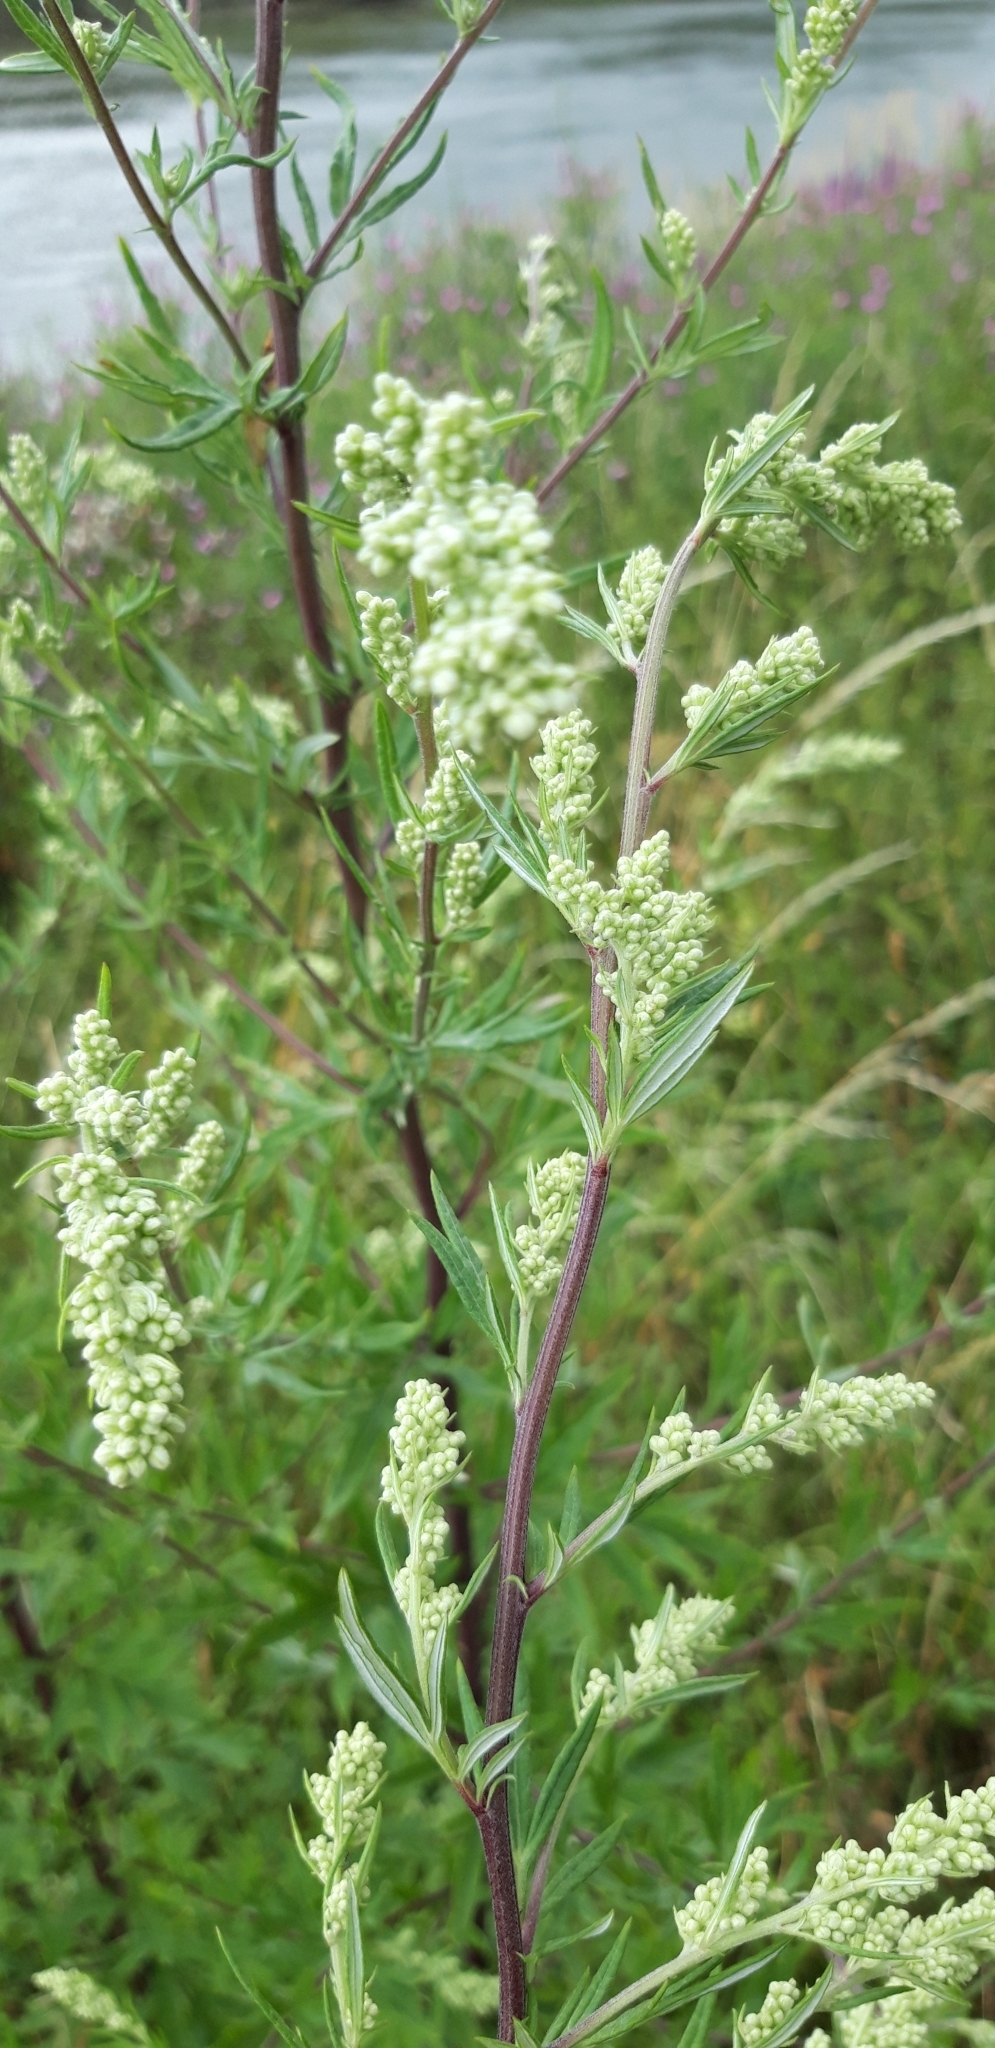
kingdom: Plantae
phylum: Tracheophyta
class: Magnoliopsida
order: Asterales
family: Asteraceae
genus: Artemisia
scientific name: Artemisia vulgaris
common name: Mugwort
